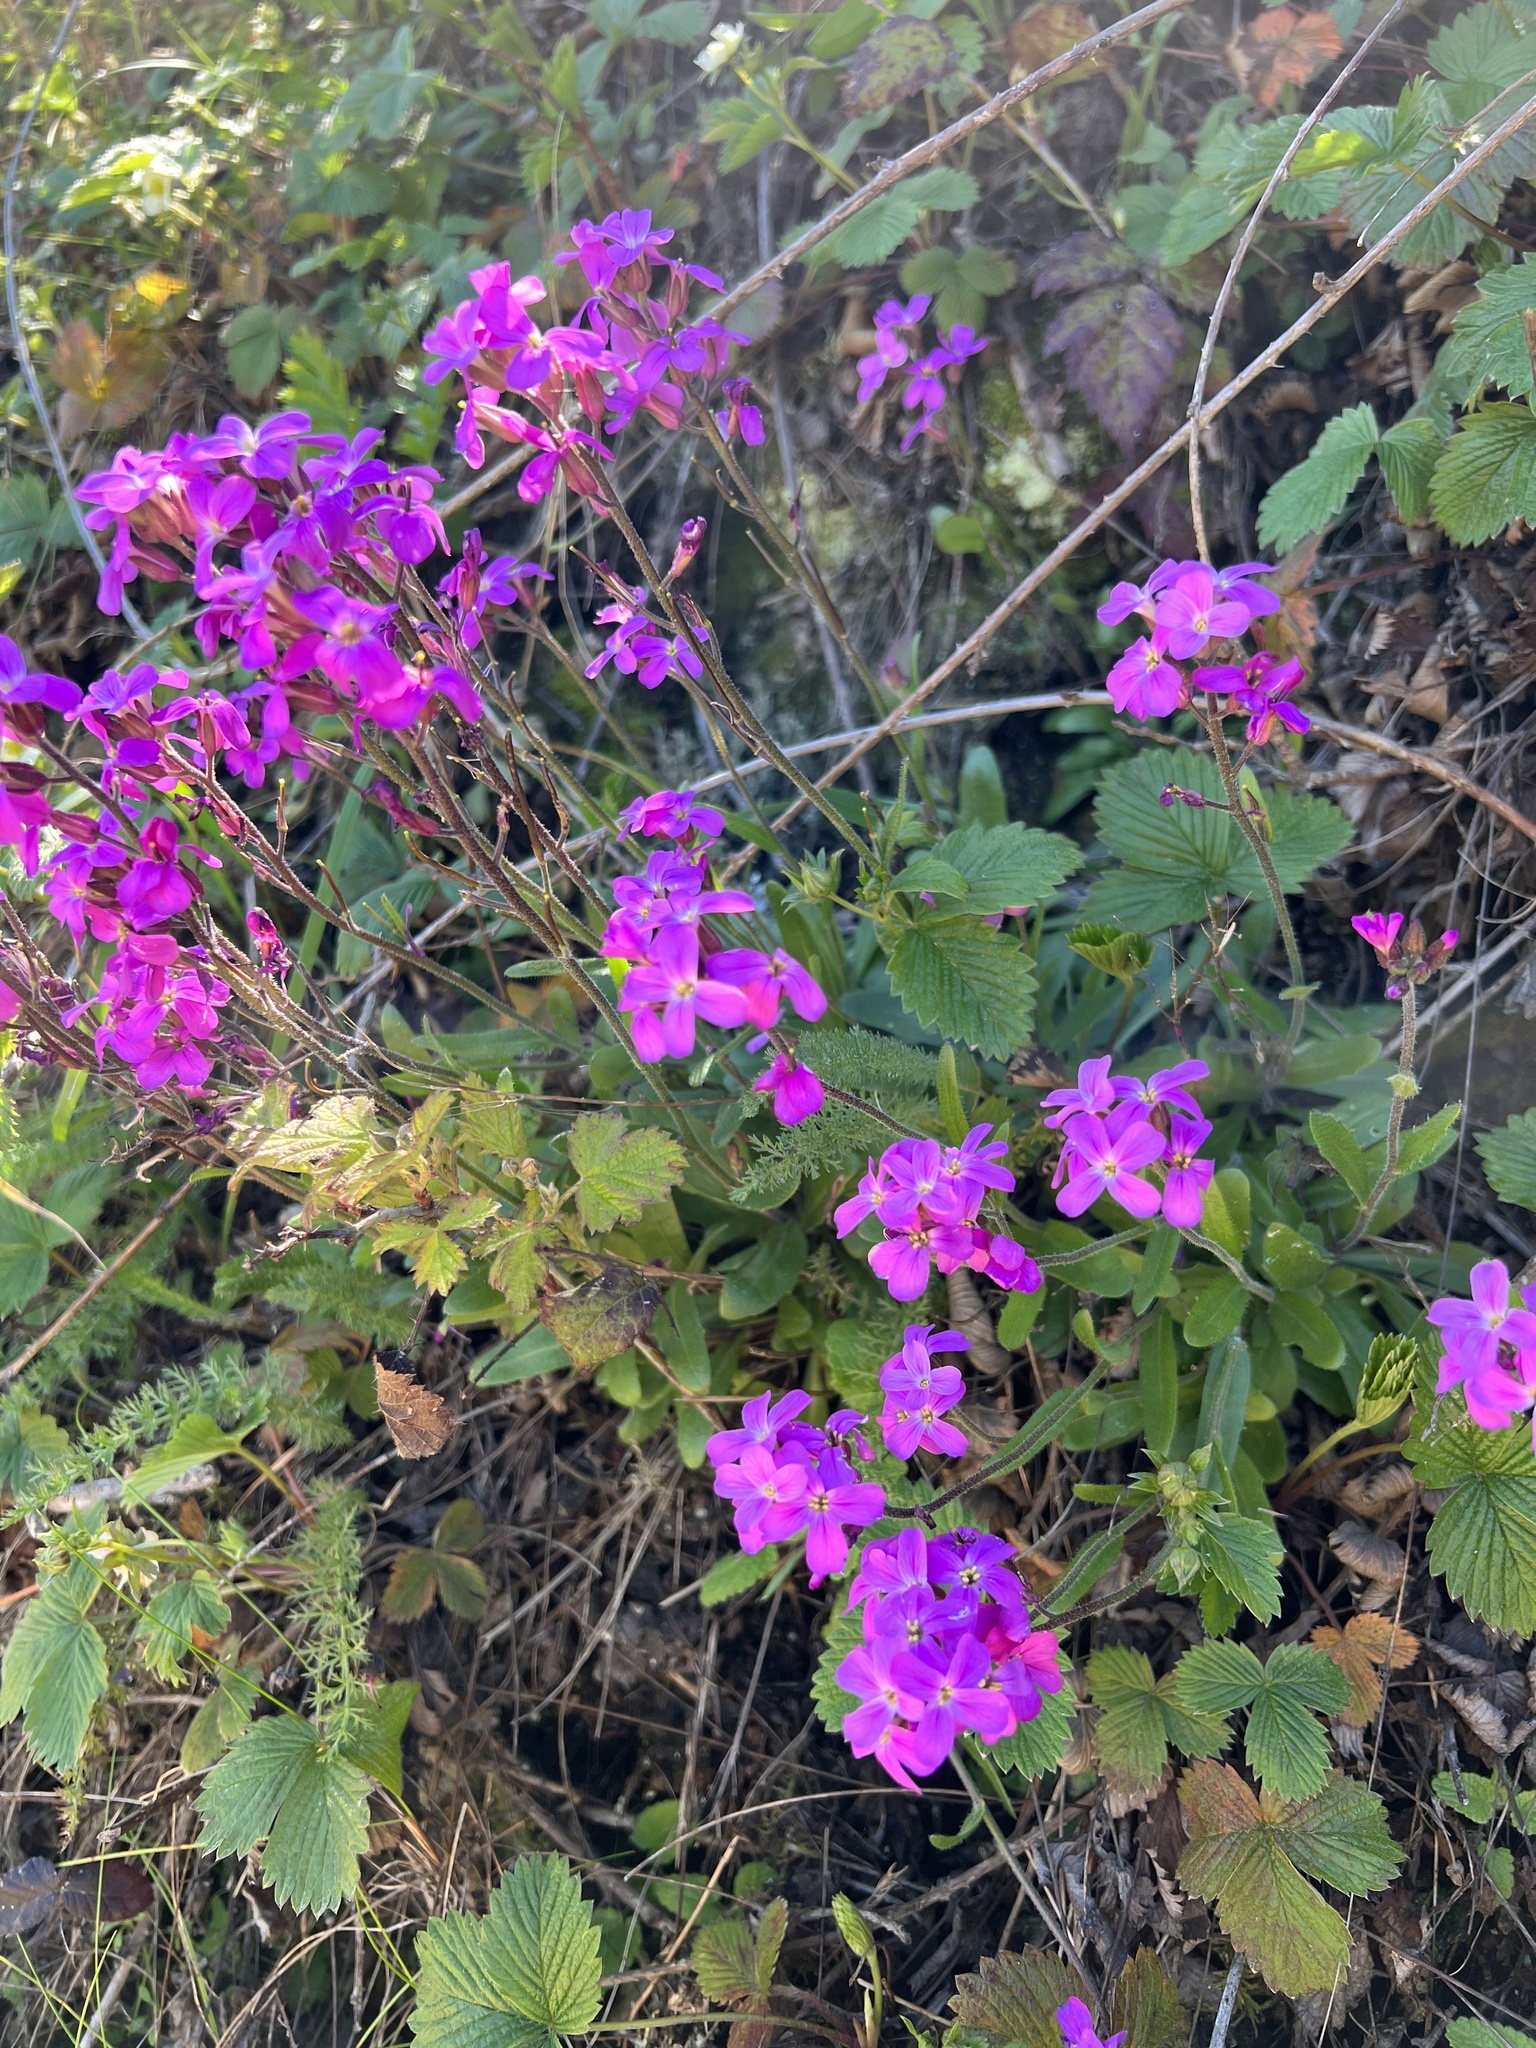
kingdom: Plantae
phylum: Tracheophyta
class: Magnoliopsida
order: Brassicales
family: Brassicaceae
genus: Arabis
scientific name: Arabis blepharophylla
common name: Rose rockcress
